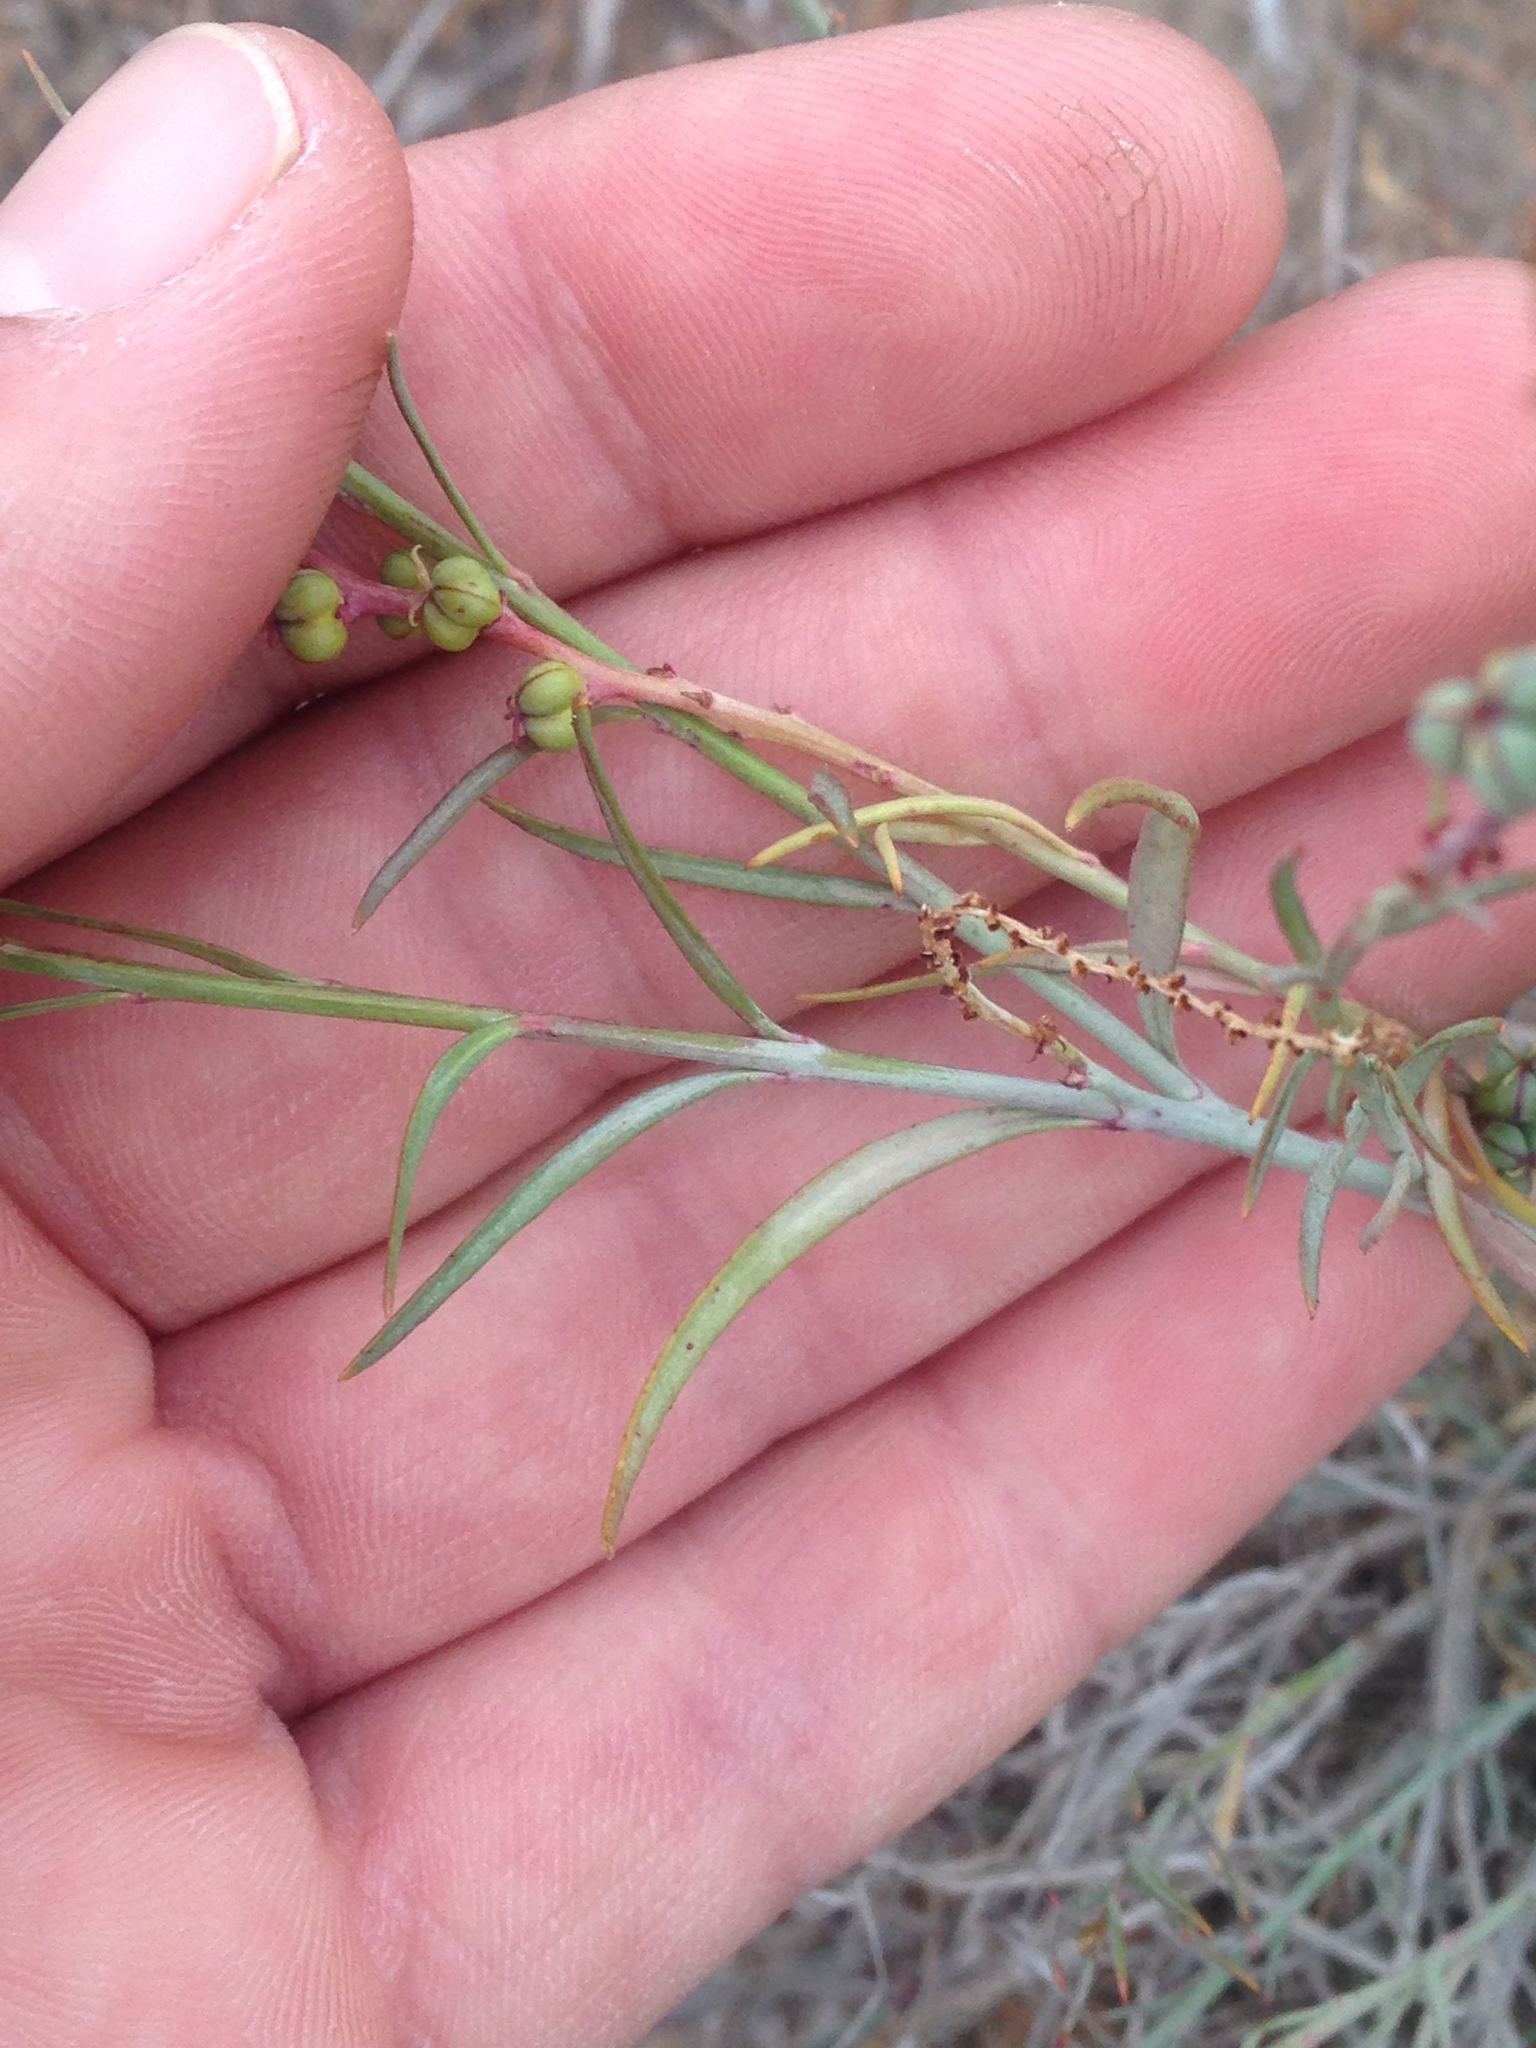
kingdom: Plantae
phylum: Tracheophyta
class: Magnoliopsida
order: Malpighiales
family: Euphorbiaceae
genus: Stillingia
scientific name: Stillingia linearifolia
